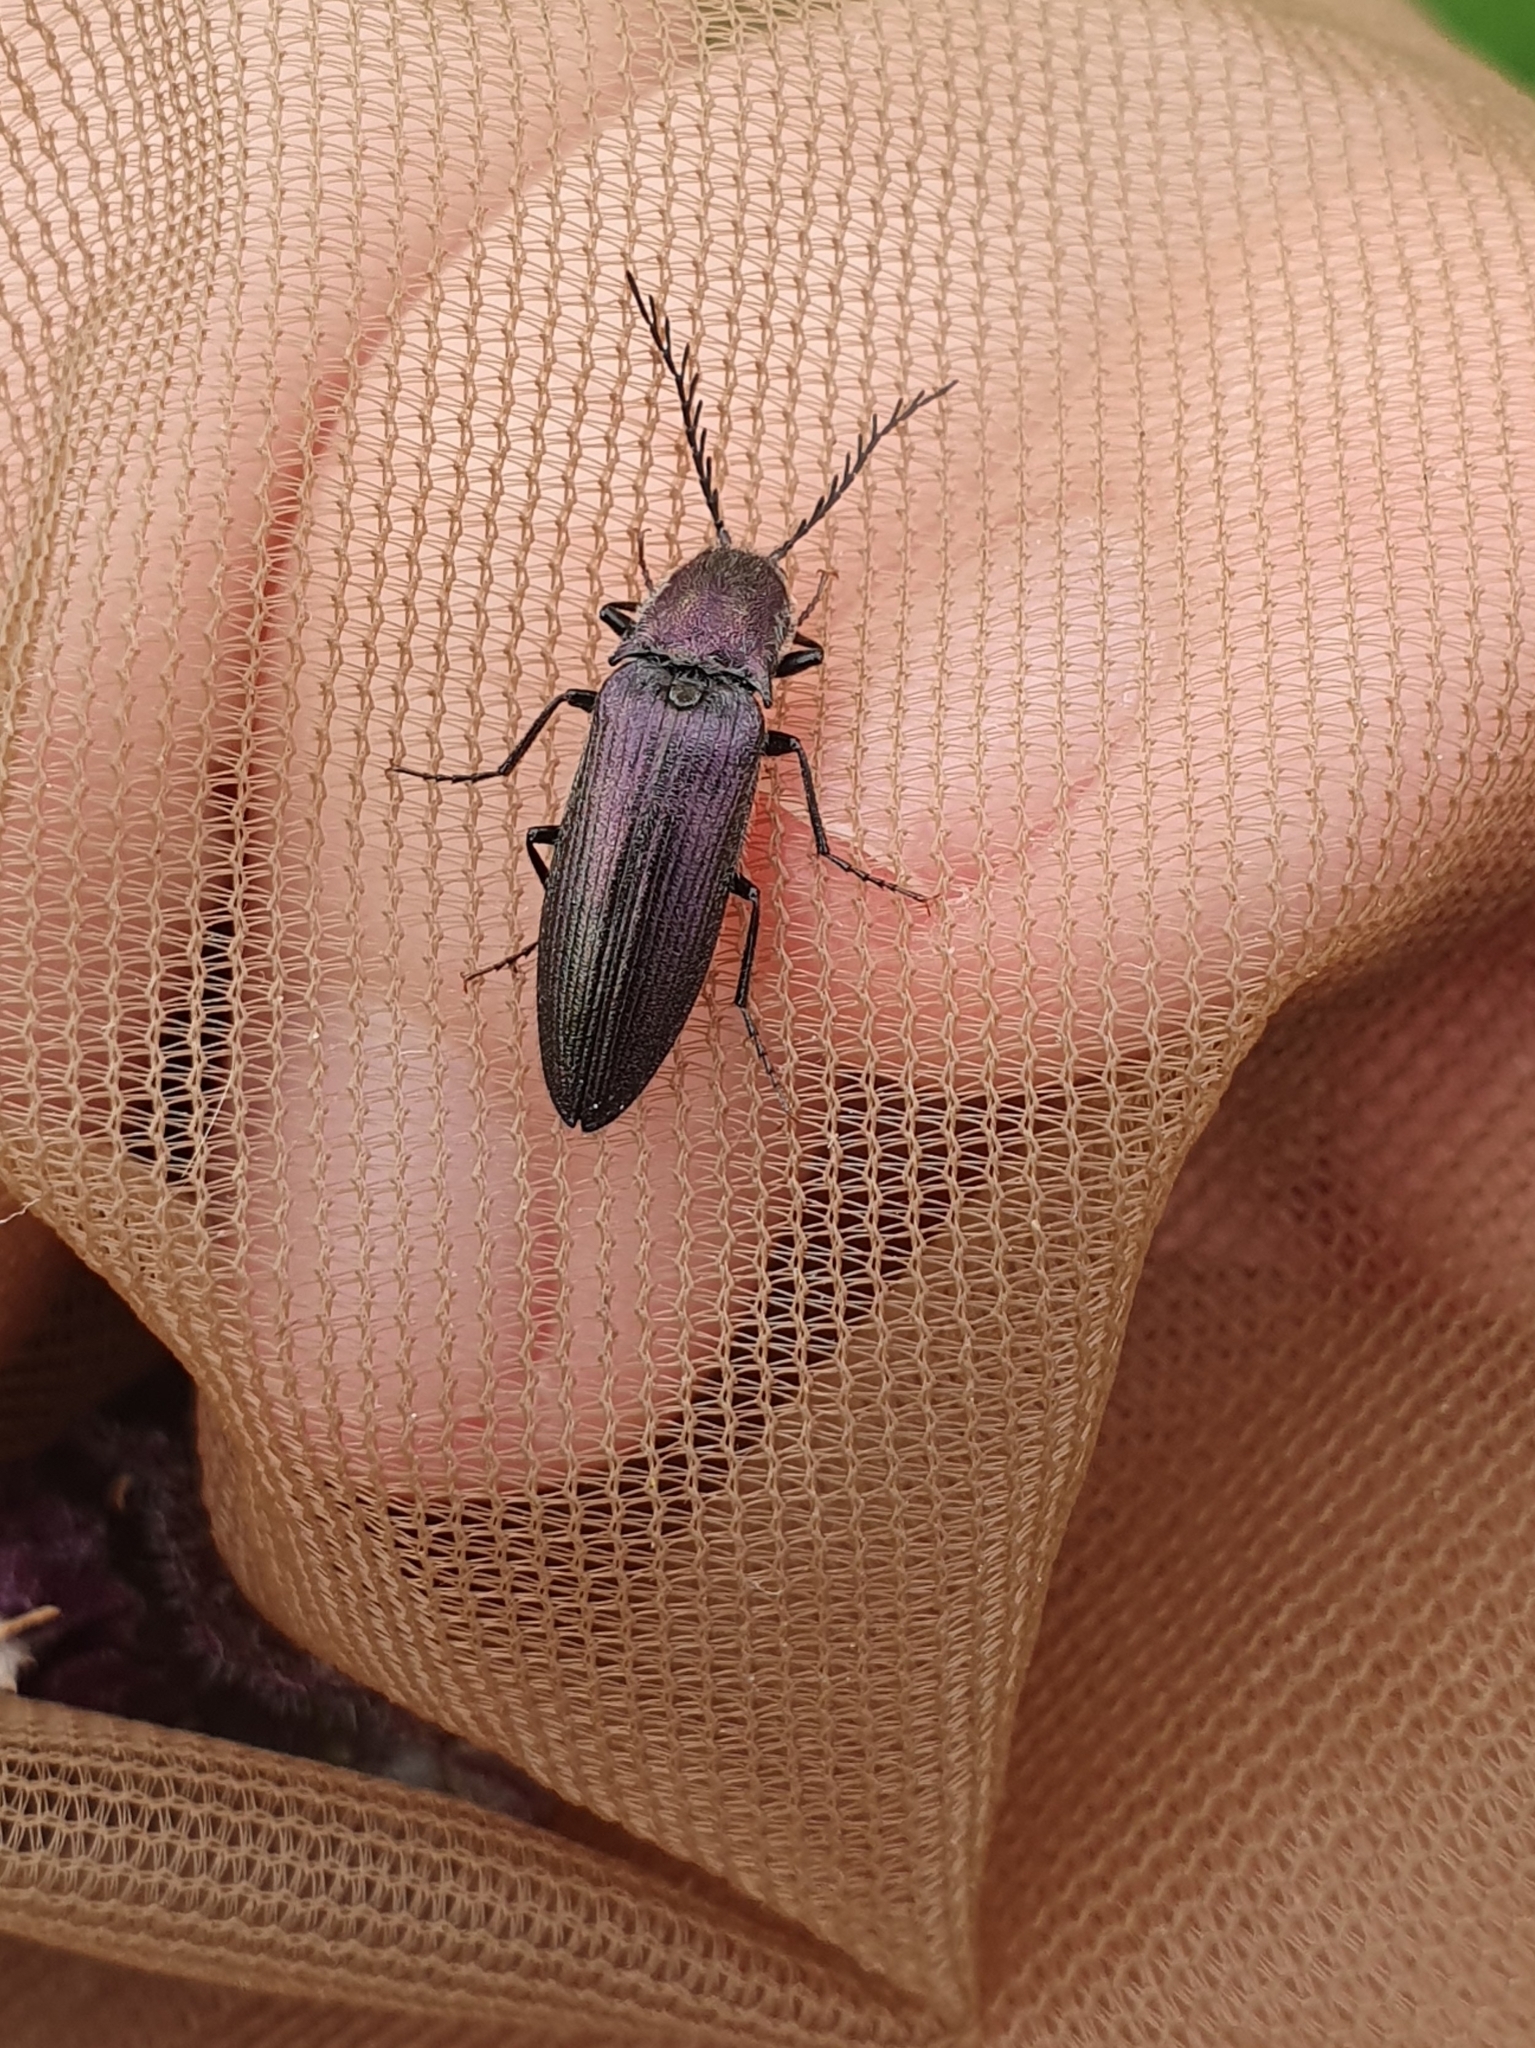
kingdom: Animalia
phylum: Arthropoda
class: Insecta
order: Coleoptera
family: Elateridae
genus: Ctenicera
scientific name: Ctenicera cuprea
